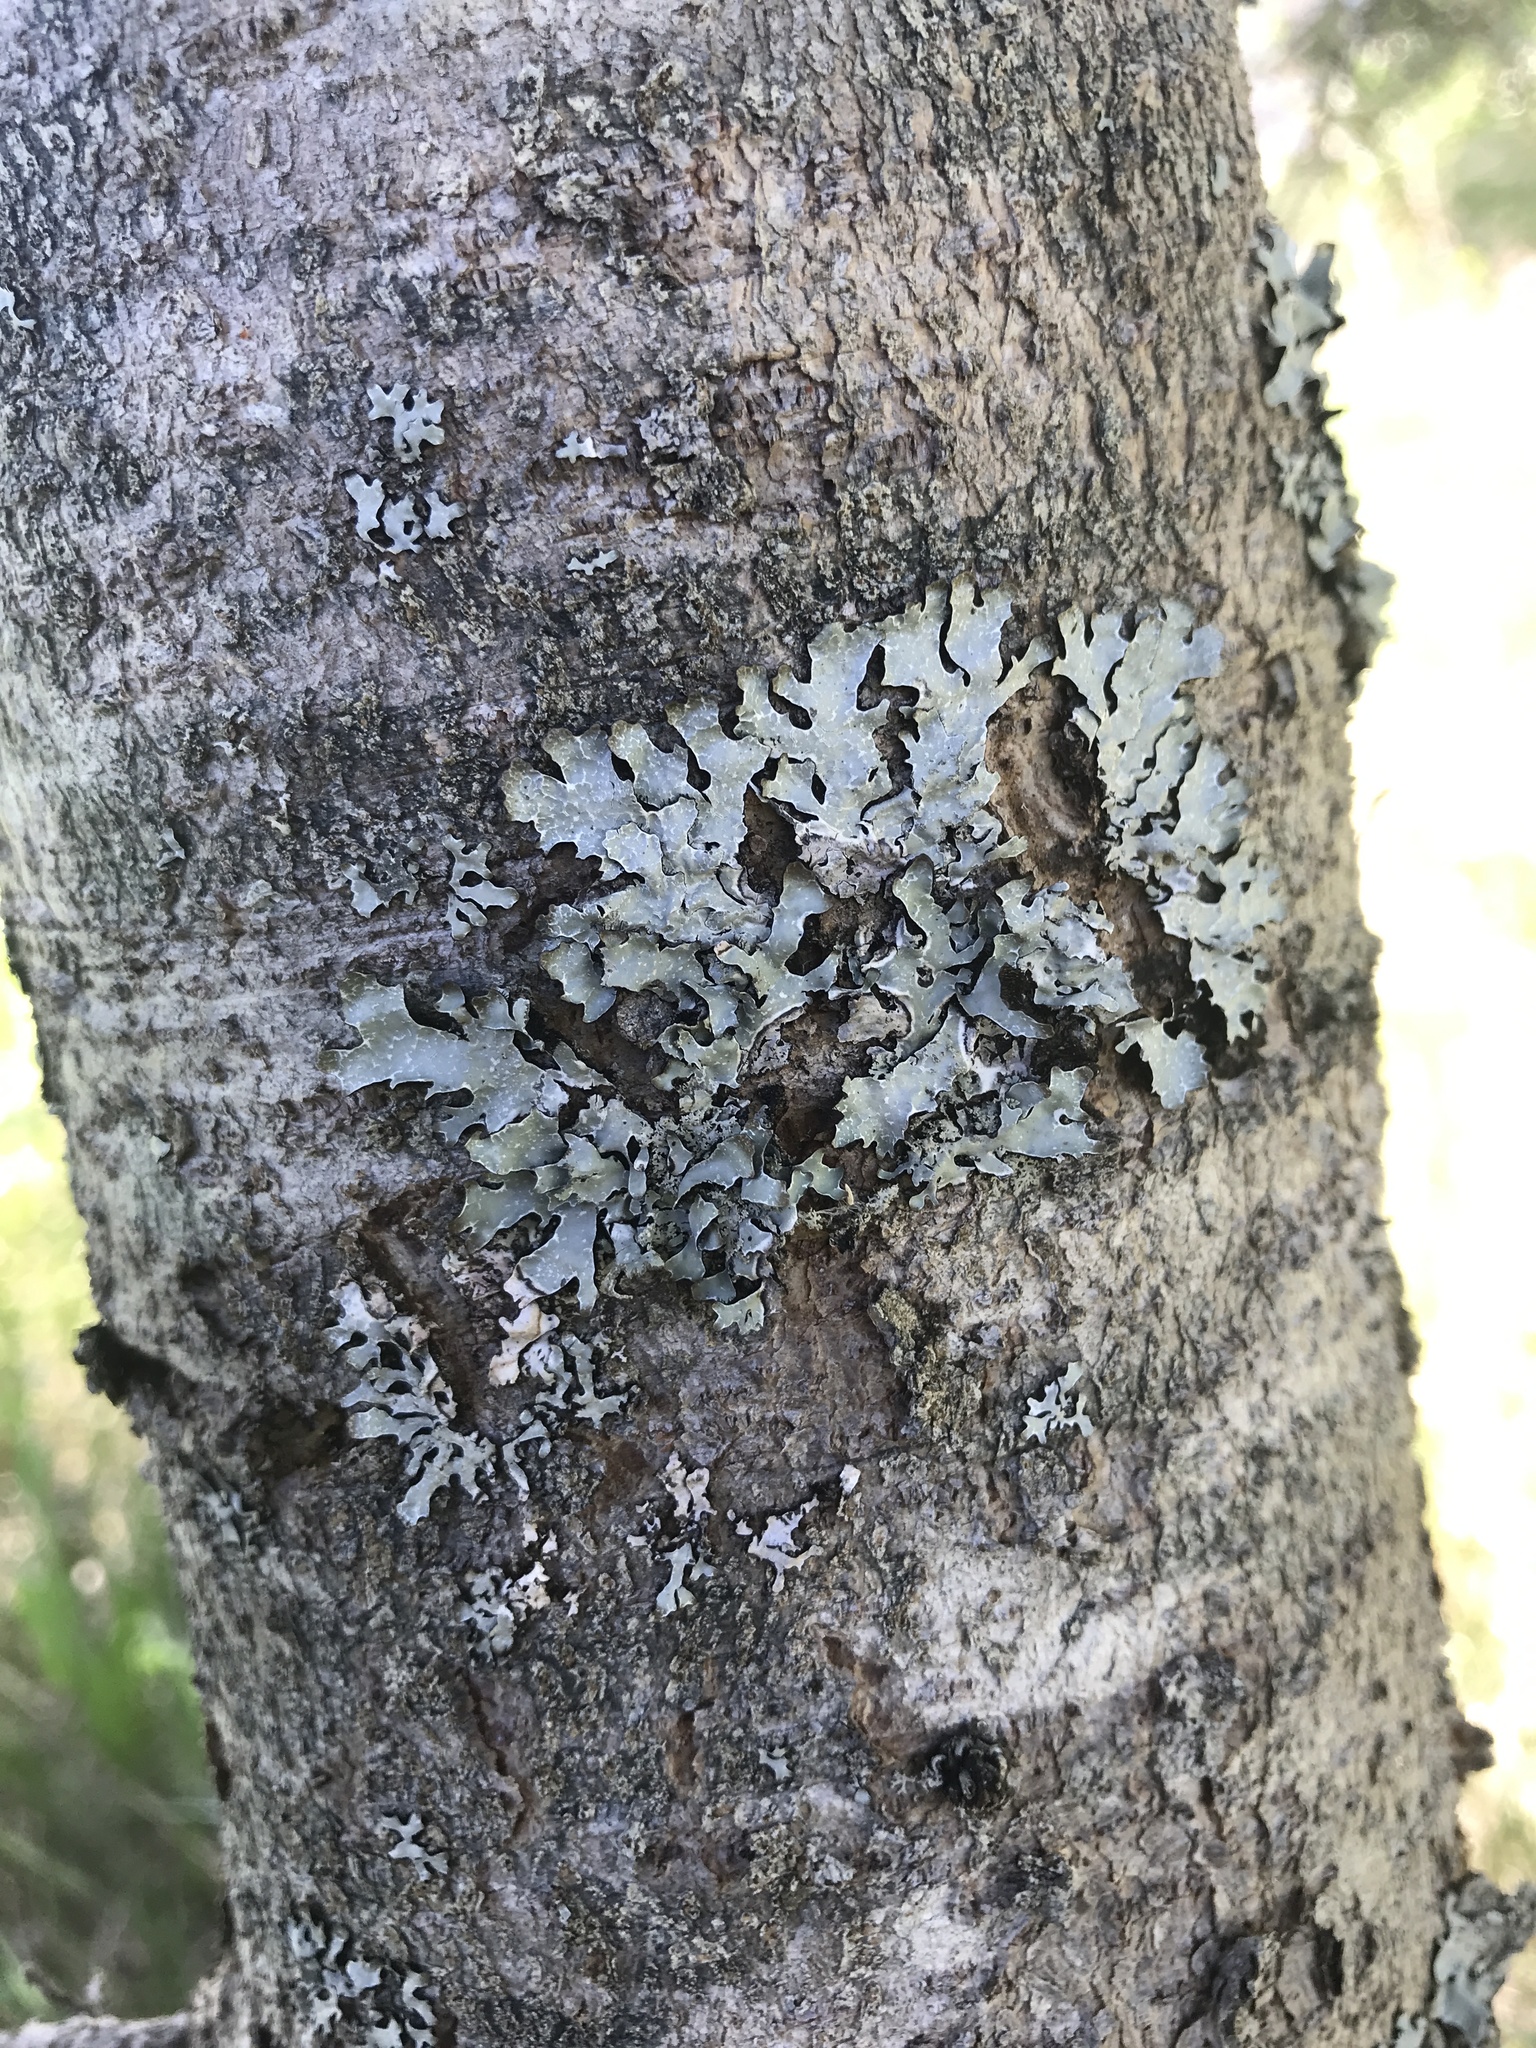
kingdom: Fungi
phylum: Ascomycota
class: Lecanoromycetes
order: Lecanorales
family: Parmeliaceae
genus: Parmelia
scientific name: Parmelia sulcata
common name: Netted shield lichen
